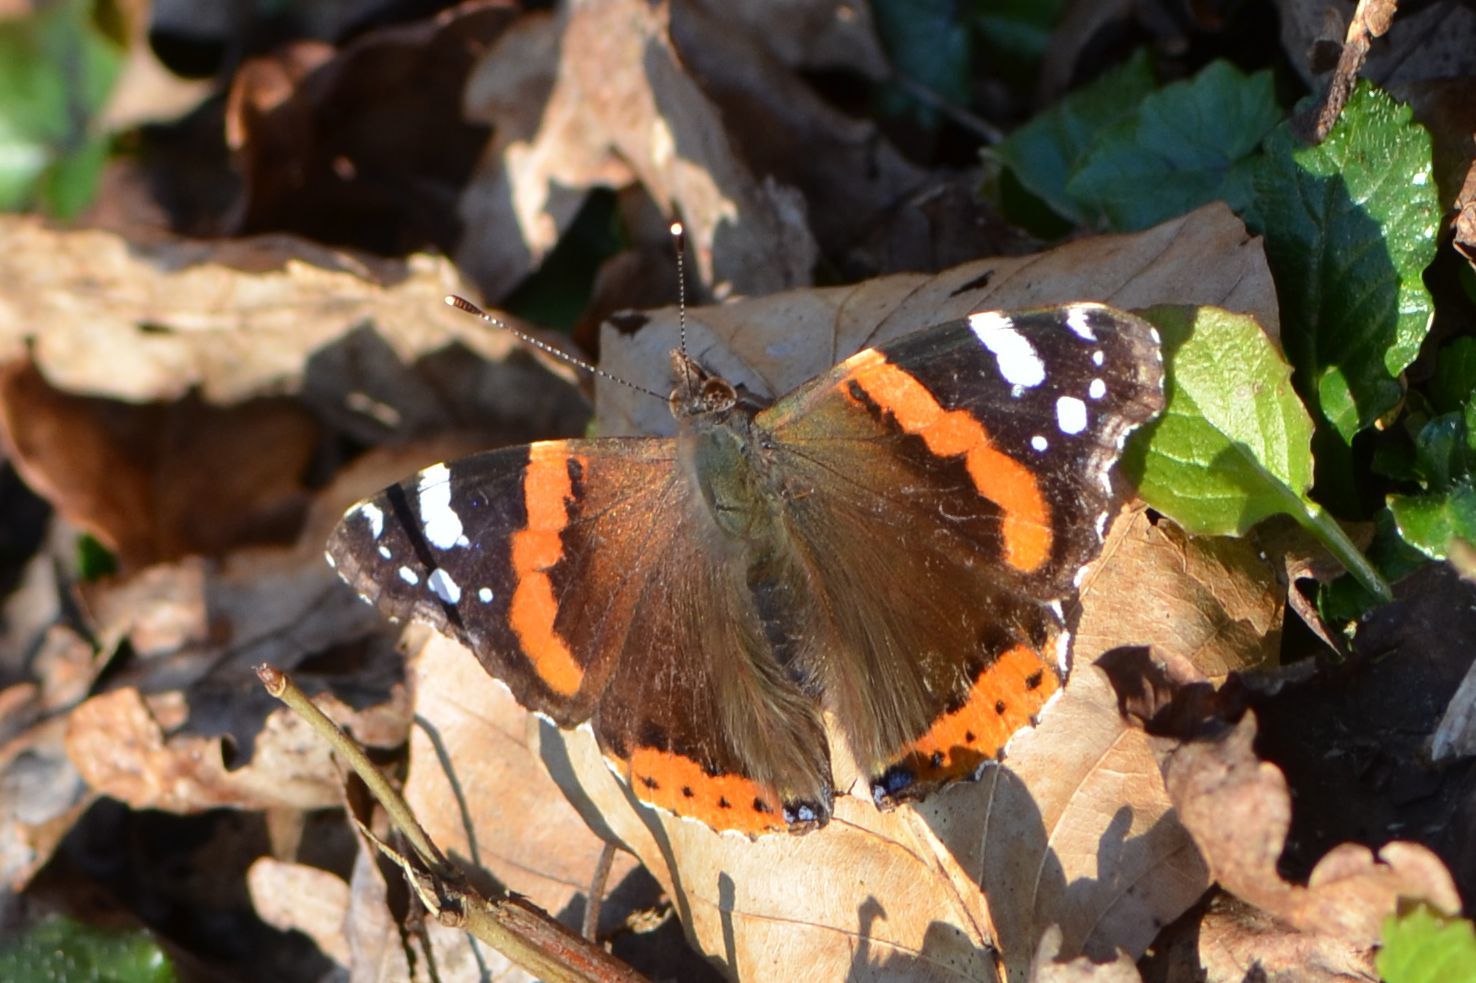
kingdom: Animalia
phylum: Arthropoda
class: Insecta
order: Lepidoptera
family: Nymphalidae
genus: Vanessa
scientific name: Vanessa atalanta
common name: Red admiral
